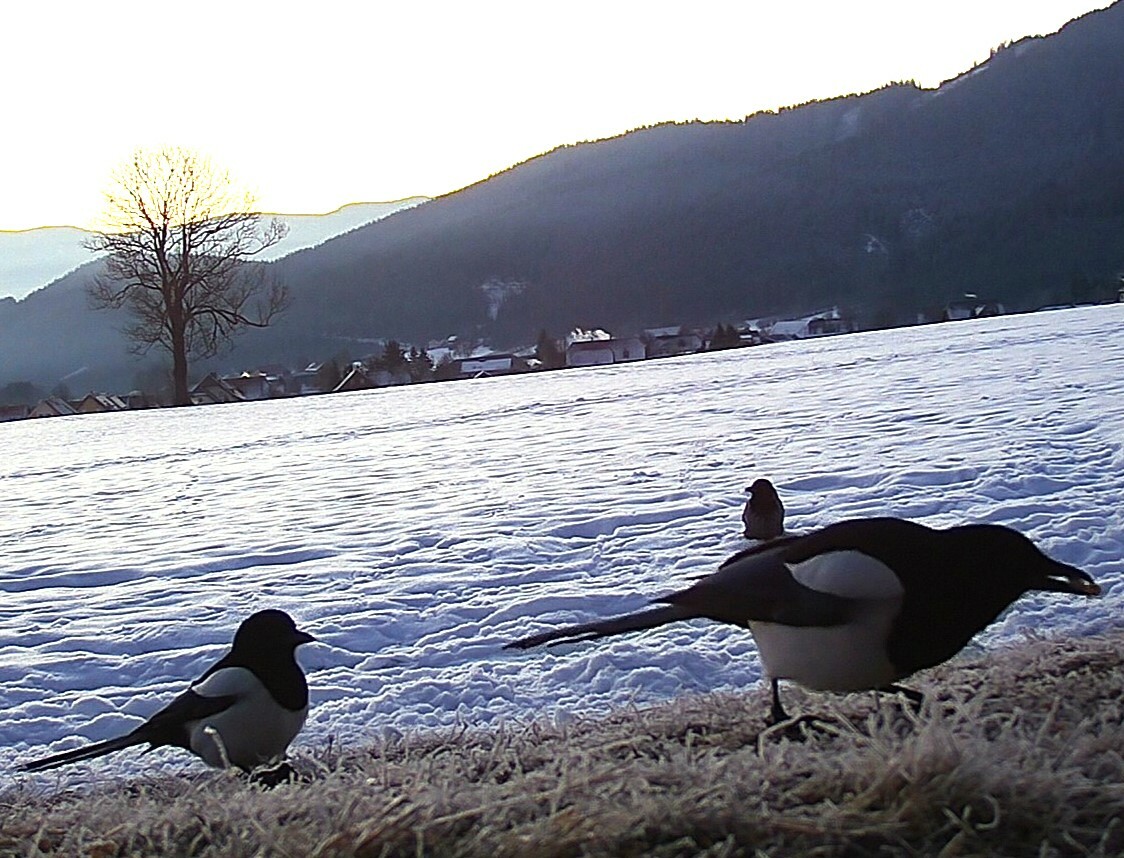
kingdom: Animalia
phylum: Chordata
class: Aves
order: Passeriformes
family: Corvidae
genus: Pica
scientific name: Pica pica
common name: Eurasian magpie
